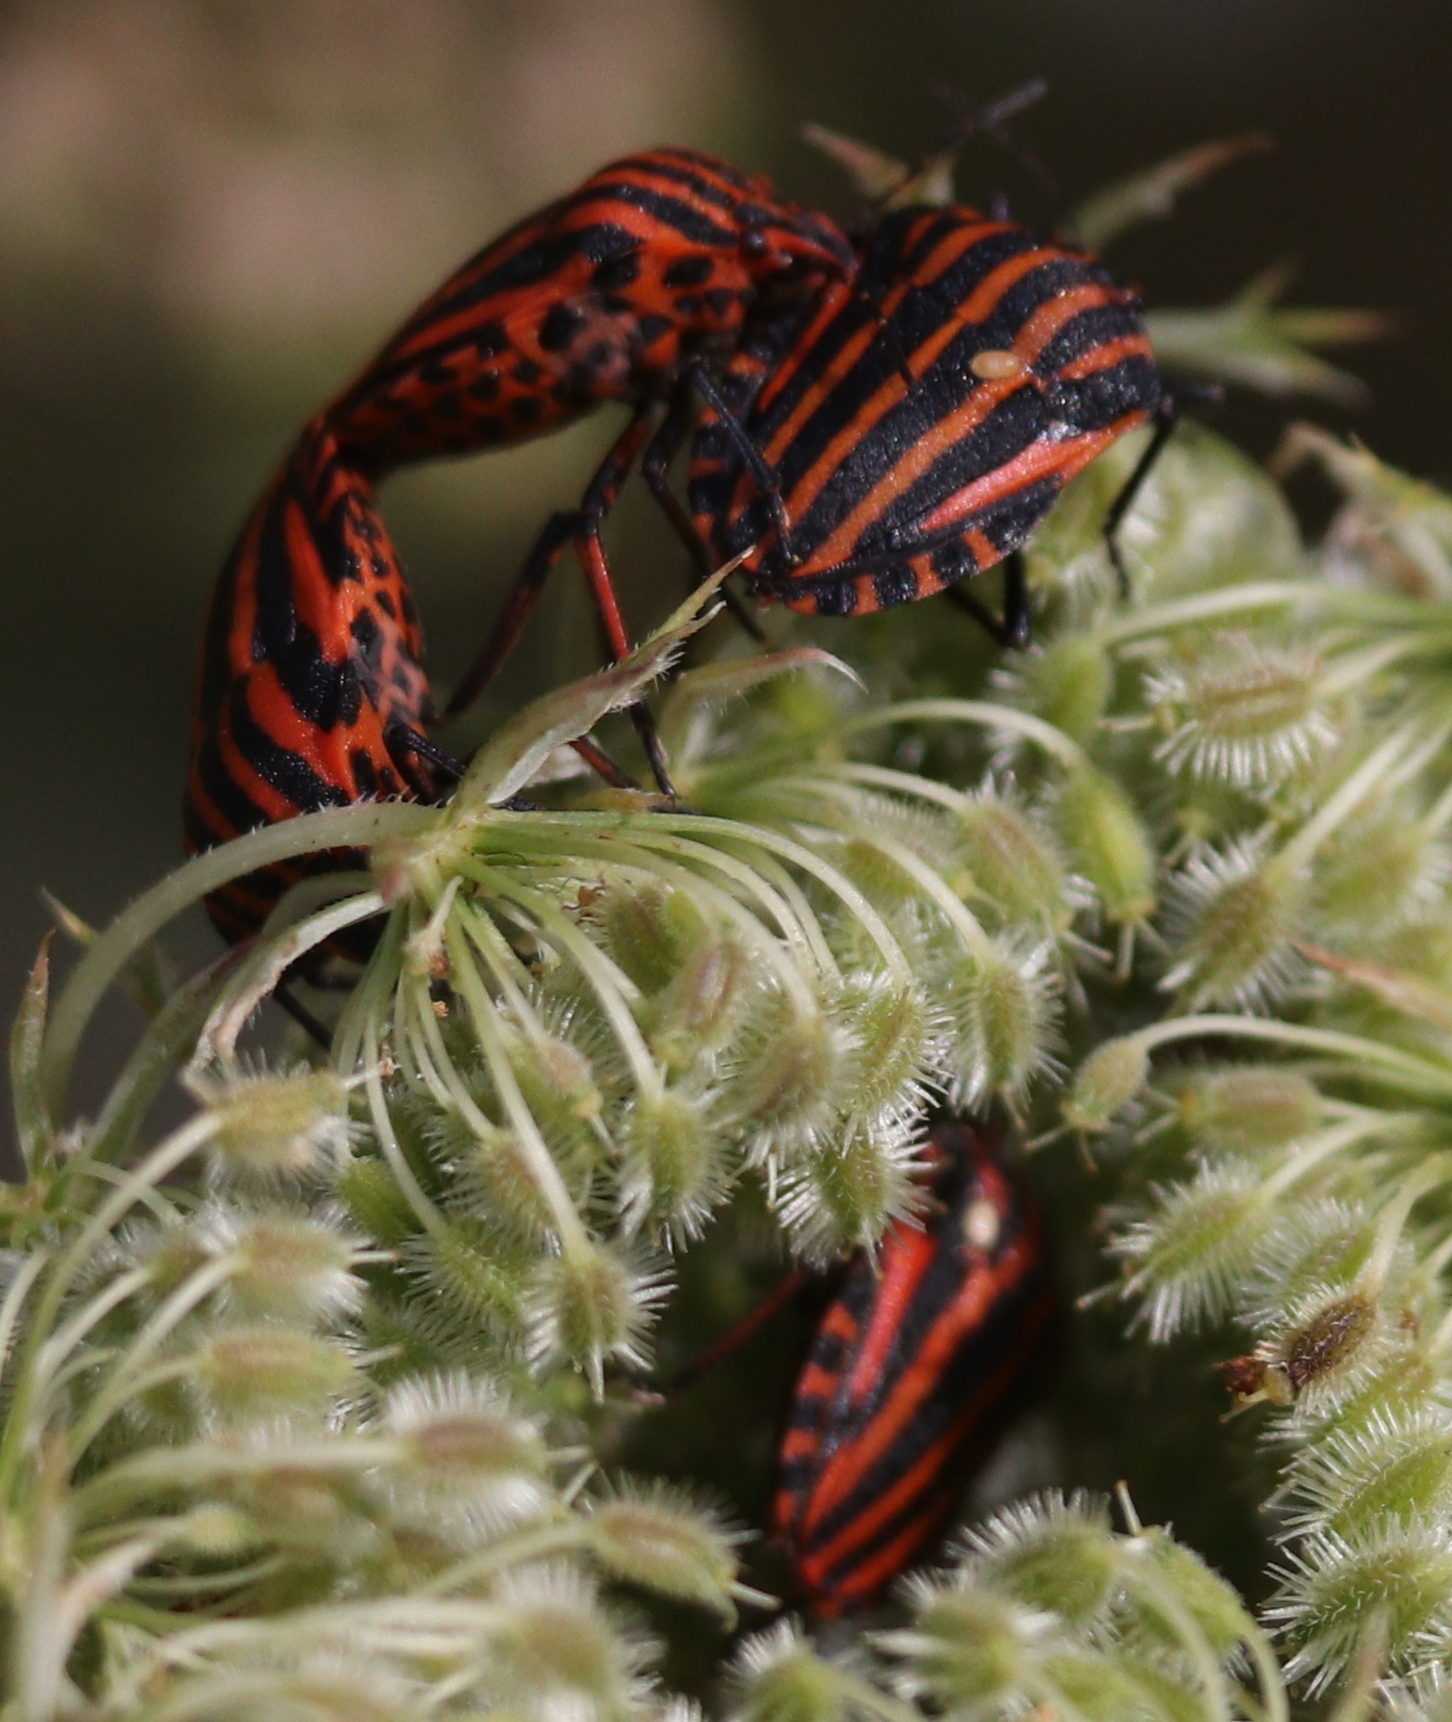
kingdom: Animalia
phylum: Arthropoda
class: Insecta
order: Hemiptera
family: Pentatomidae
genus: Graphosoma
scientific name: Graphosoma italicum
